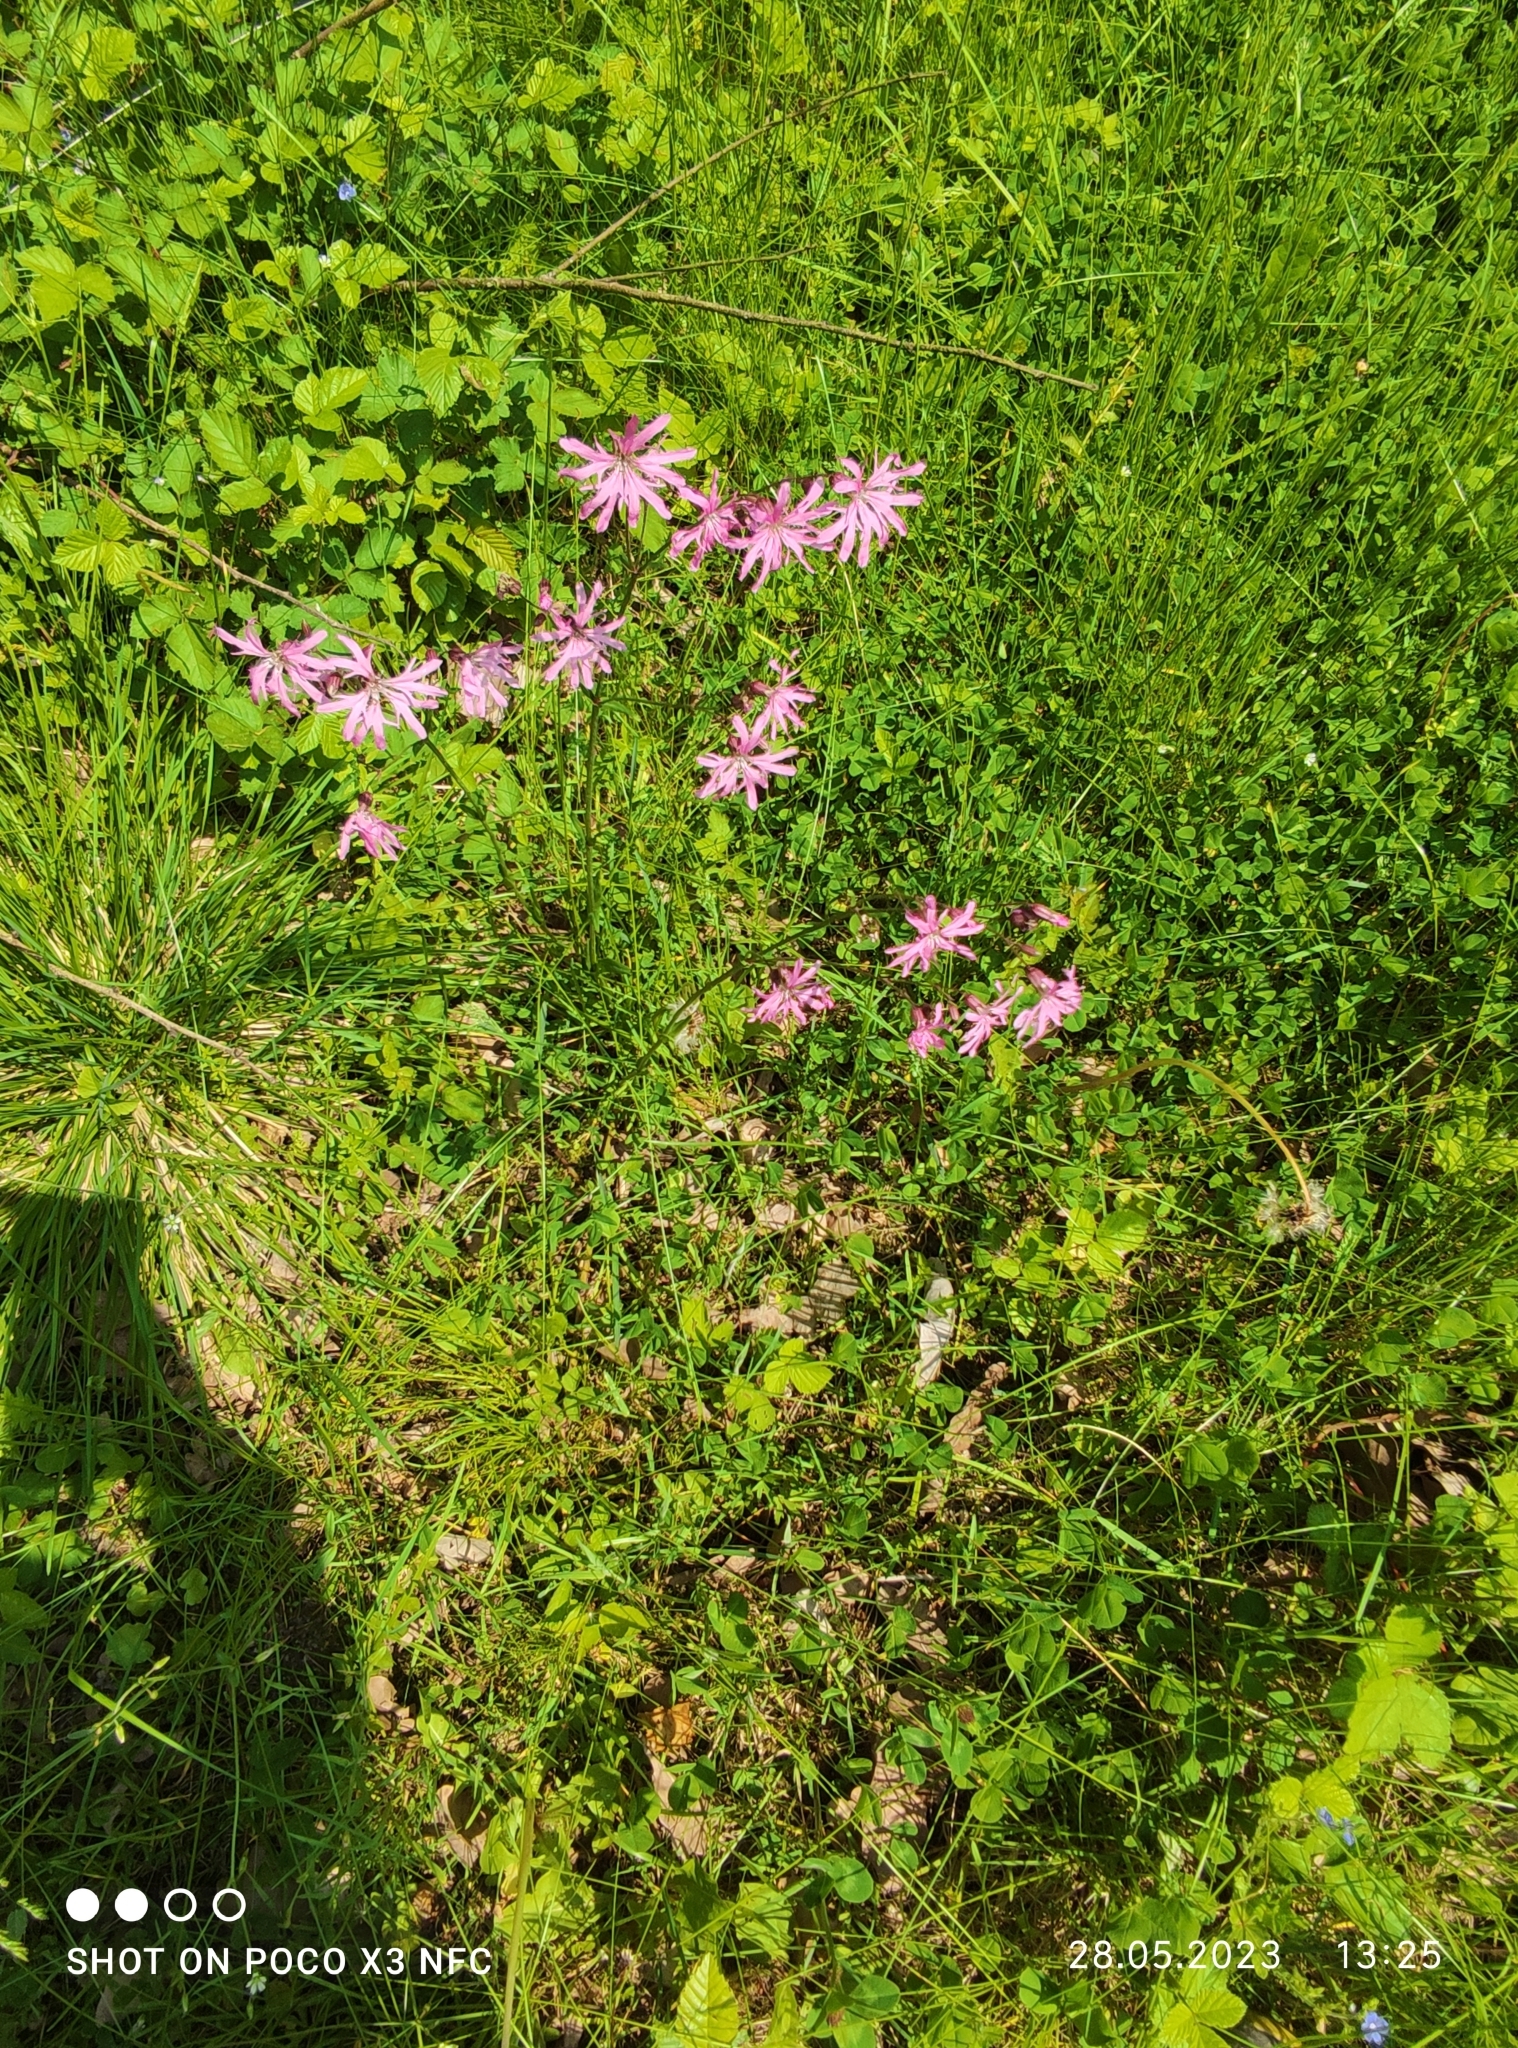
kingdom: Plantae
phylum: Tracheophyta
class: Magnoliopsida
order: Caryophyllales
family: Caryophyllaceae
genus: Silene
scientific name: Silene flos-cuculi
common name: Ragged-robin
